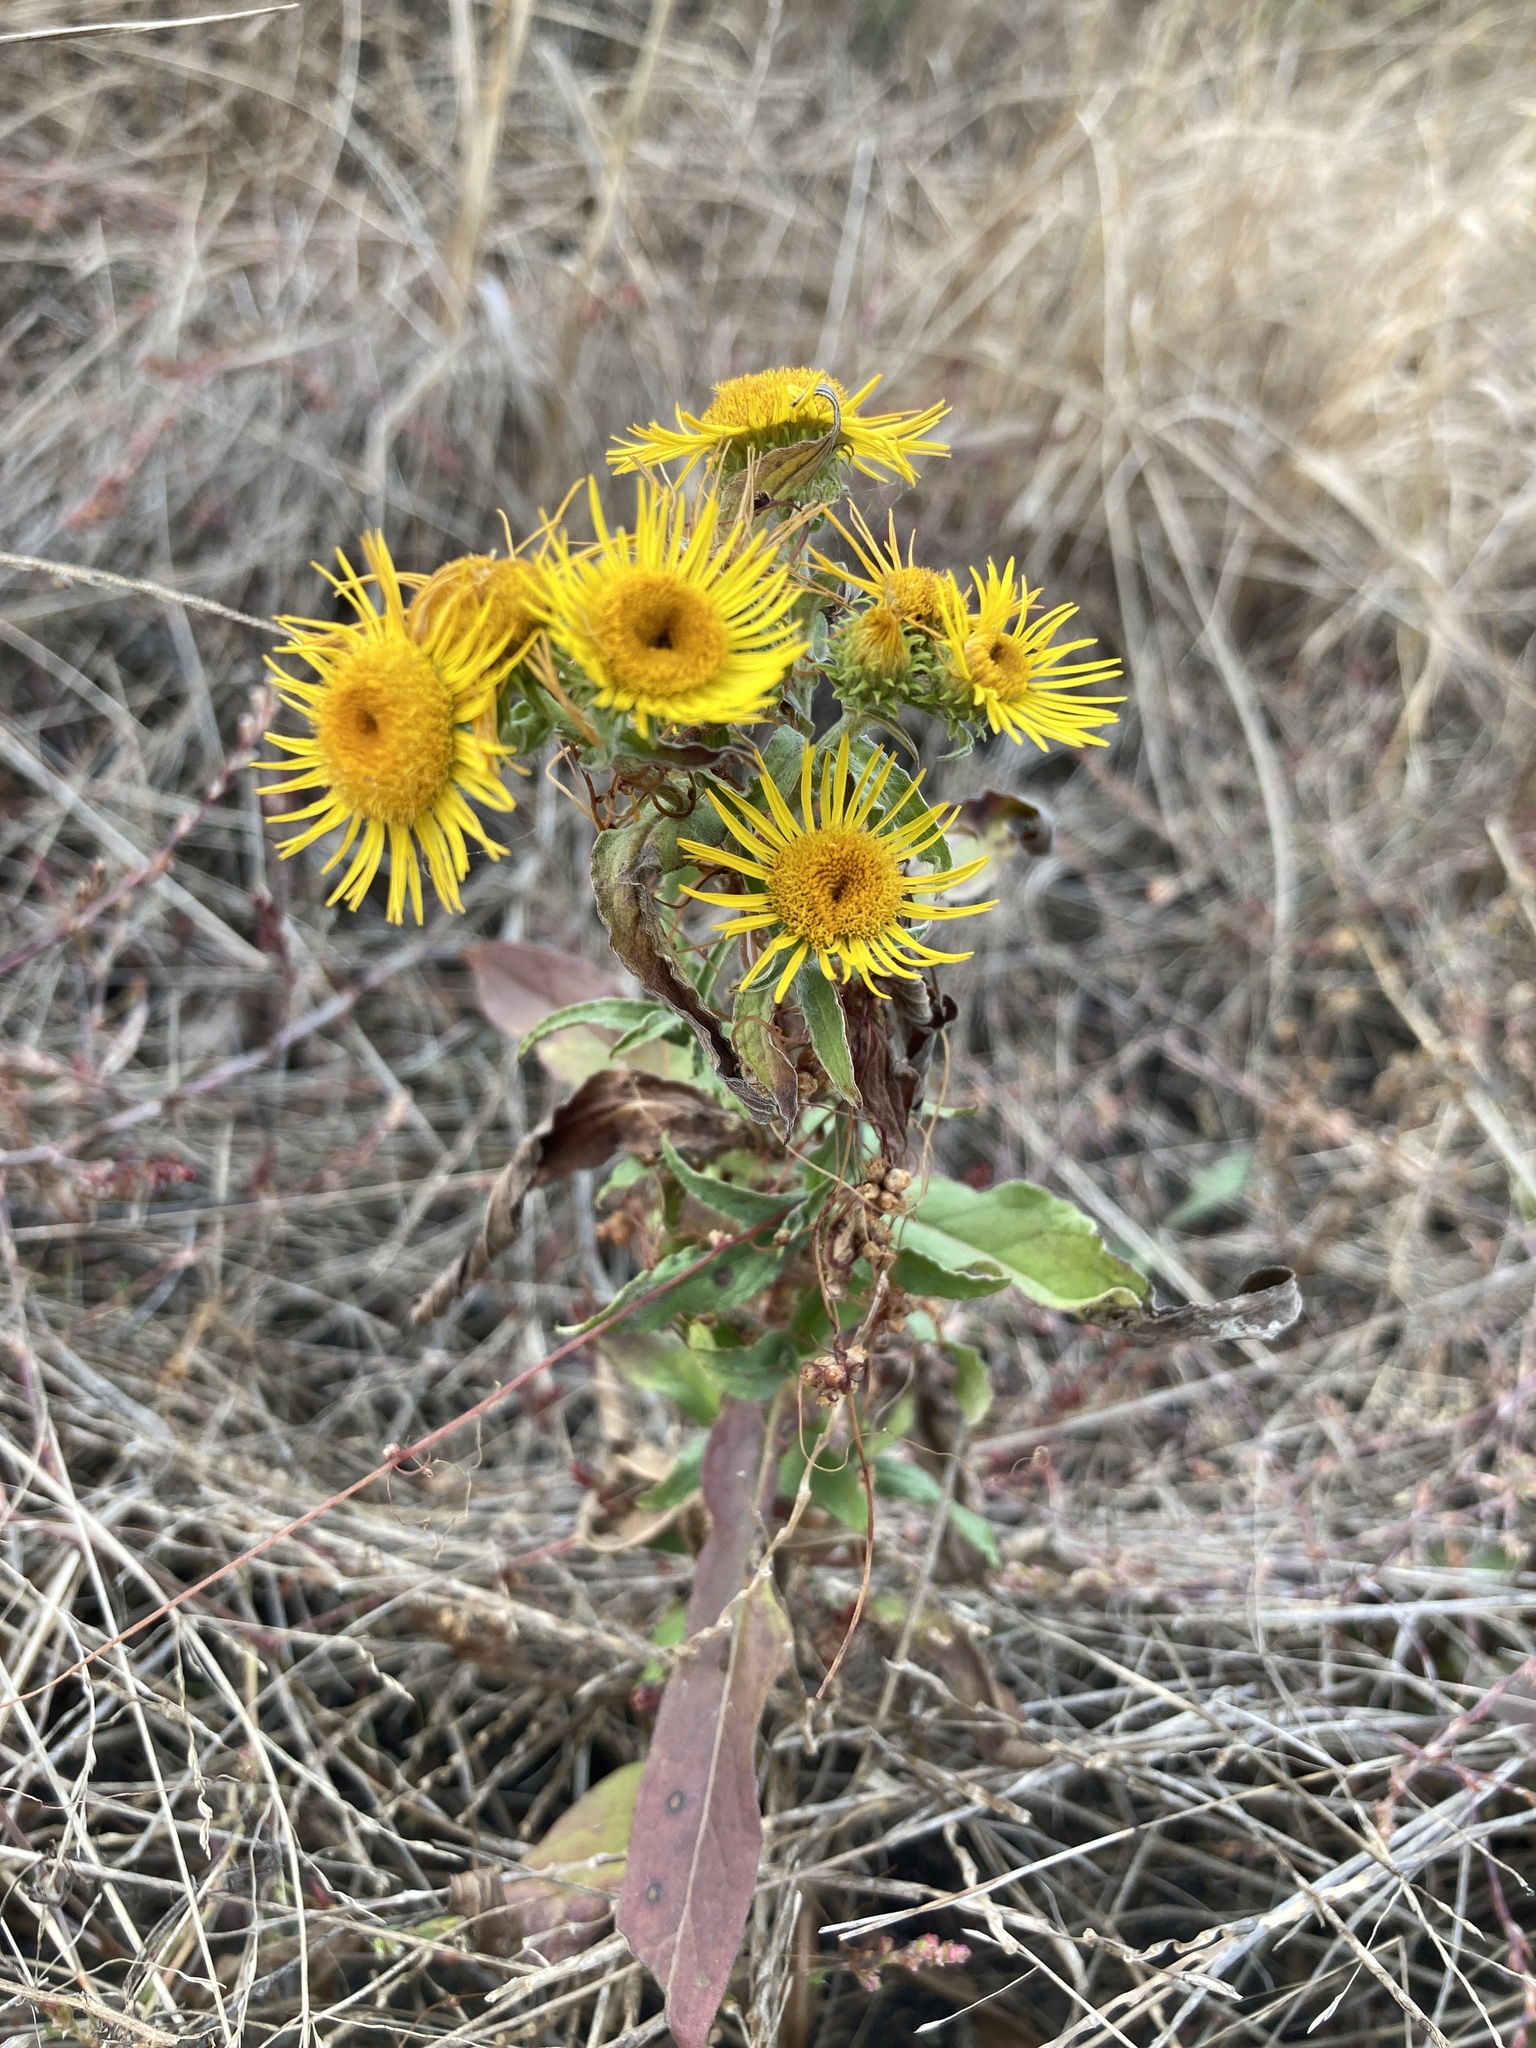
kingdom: Plantae
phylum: Tracheophyta
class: Magnoliopsida
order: Asterales
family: Asteraceae
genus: Pentanema
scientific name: Pentanema britannicum
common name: British elecampane
